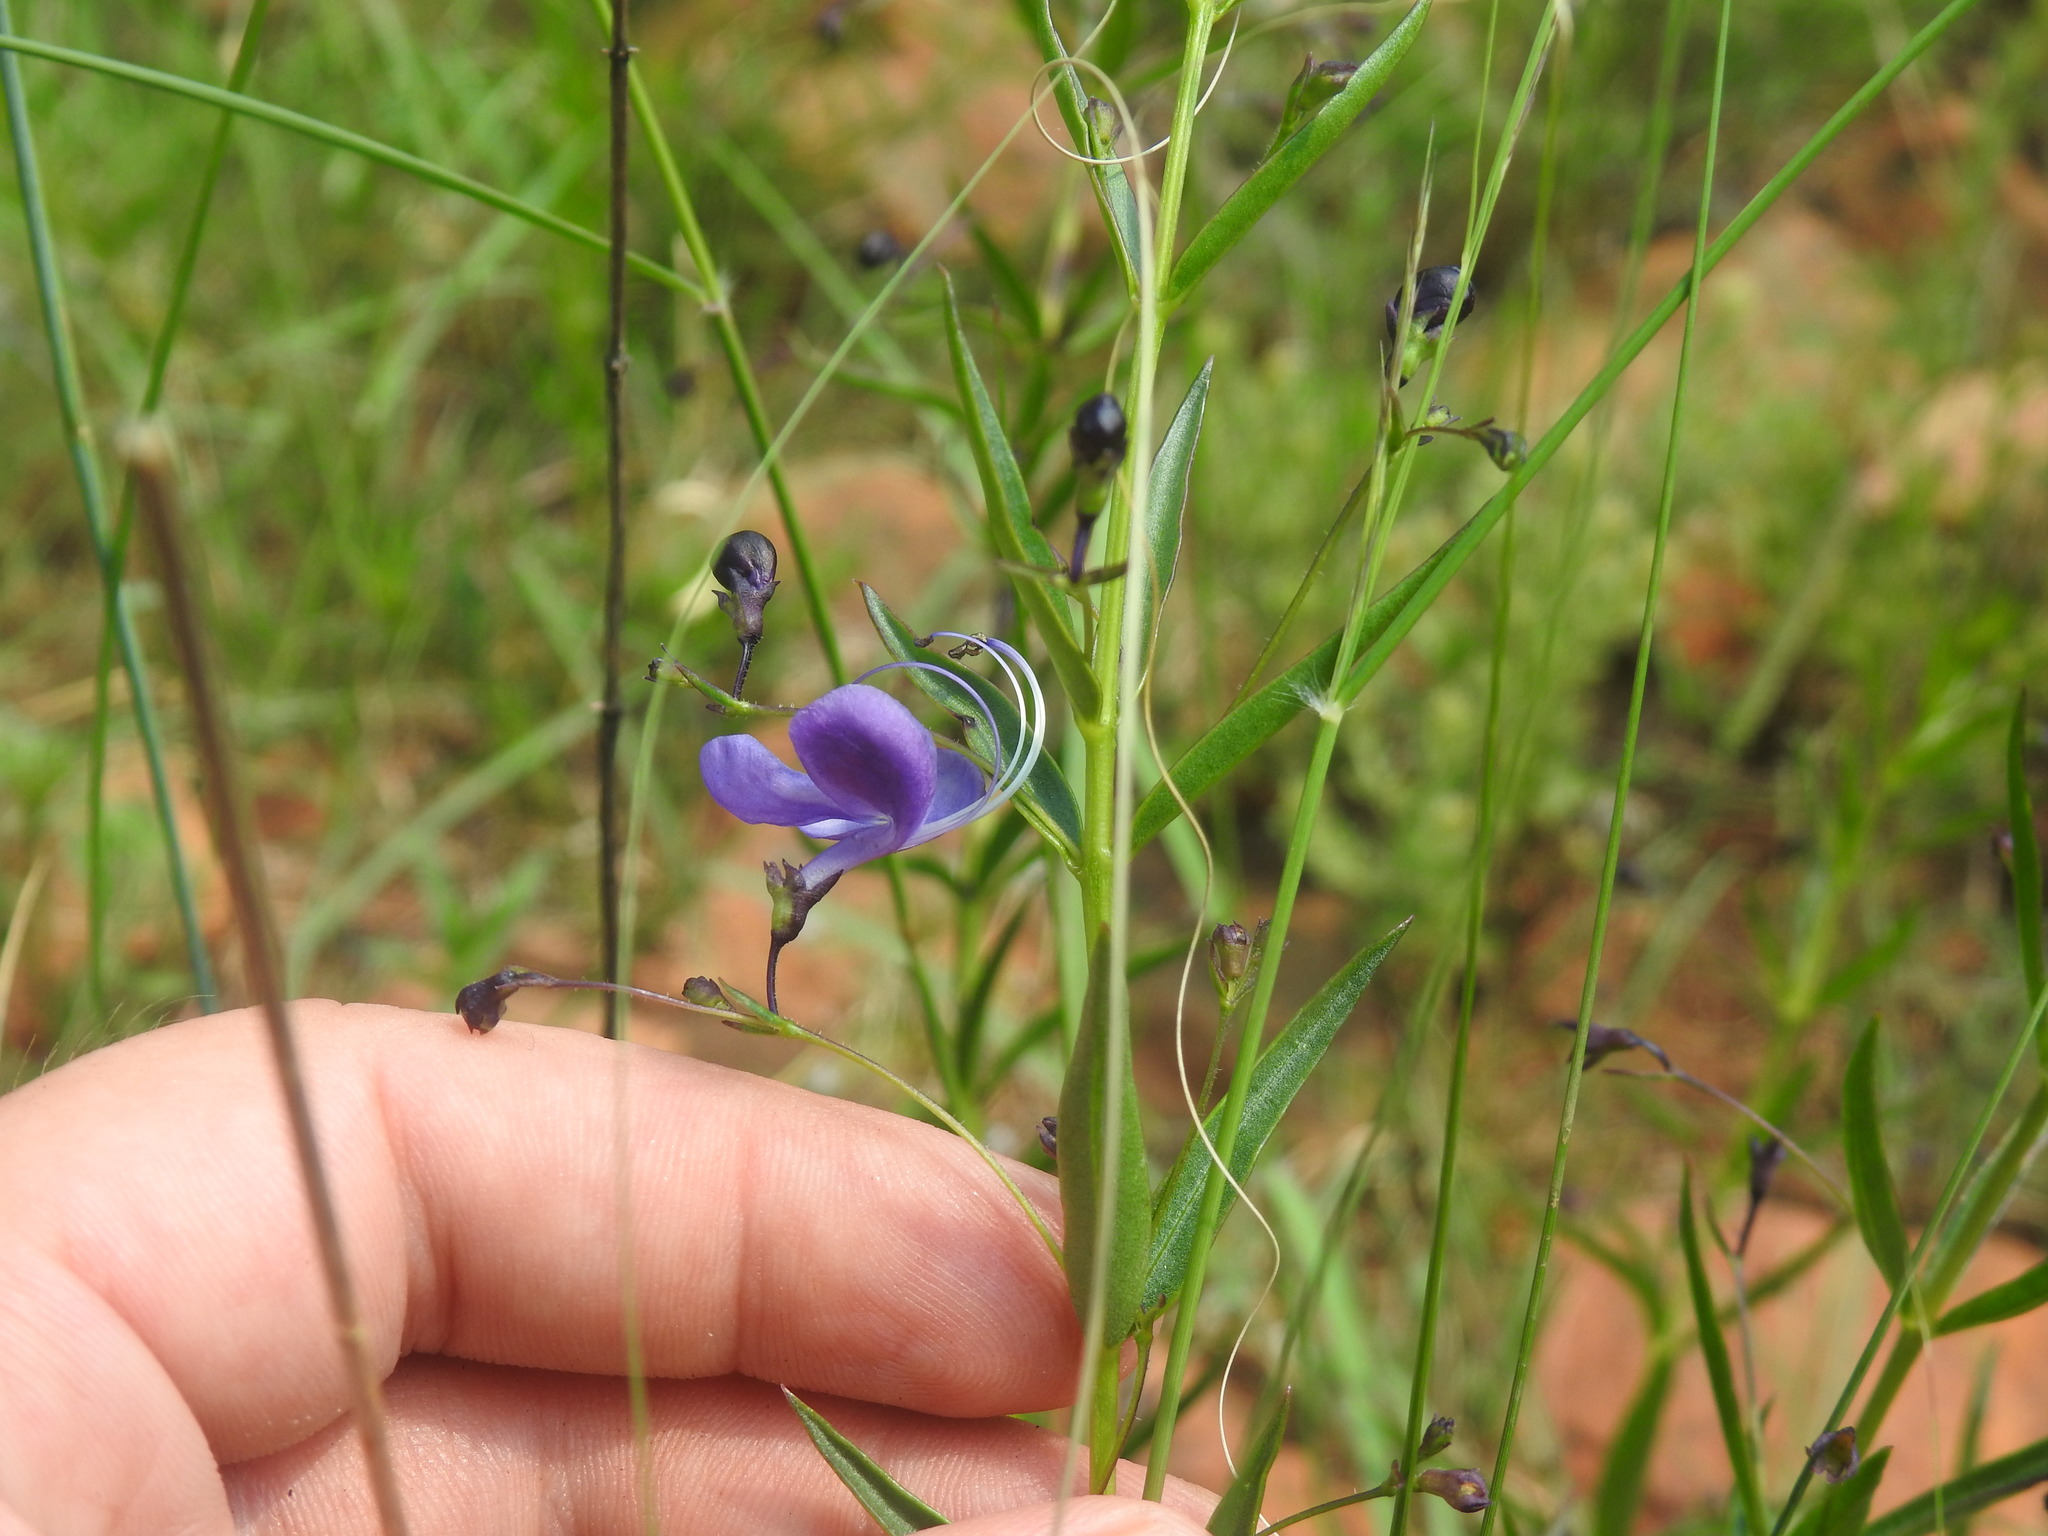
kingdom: Plantae
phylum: Tracheophyta
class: Magnoliopsida
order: Lamiales
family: Lamiaceae
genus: Rotheca
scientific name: Rotheca hirsuta
